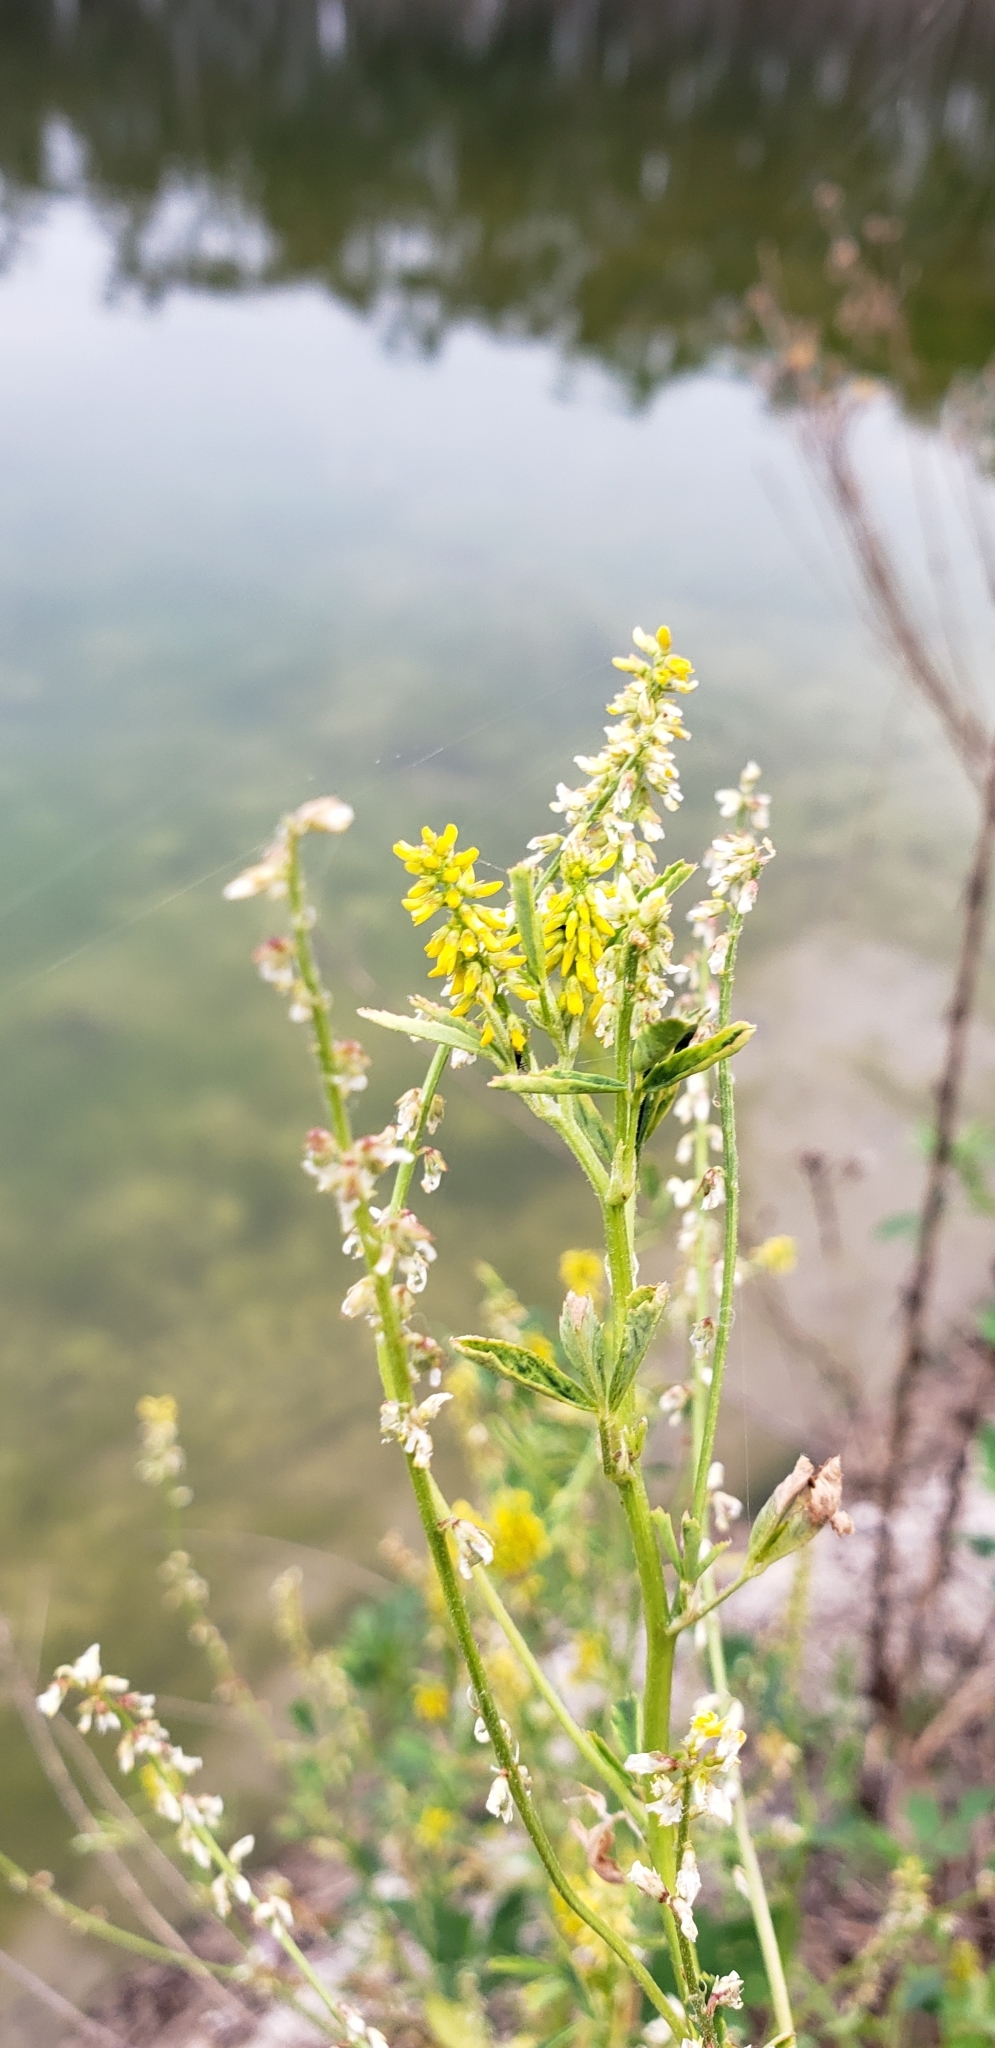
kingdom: Plantae
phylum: Tracheophyta
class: Magnoliopsida
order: Fabales
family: Fabaceae
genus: Melilotus
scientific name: Melilotus indicus
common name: Small melilot
